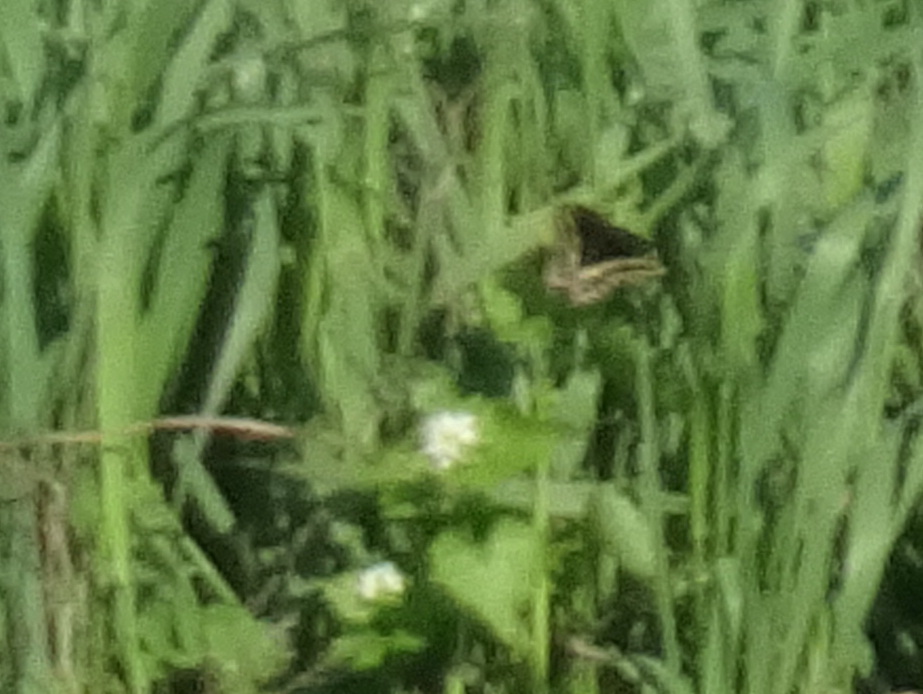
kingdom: Animalia
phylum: Arthropoda
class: Insecta
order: Lepidoptera
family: Papilionidae
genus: Papilio
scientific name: Papilio polyxenes
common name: Black swallowtail
